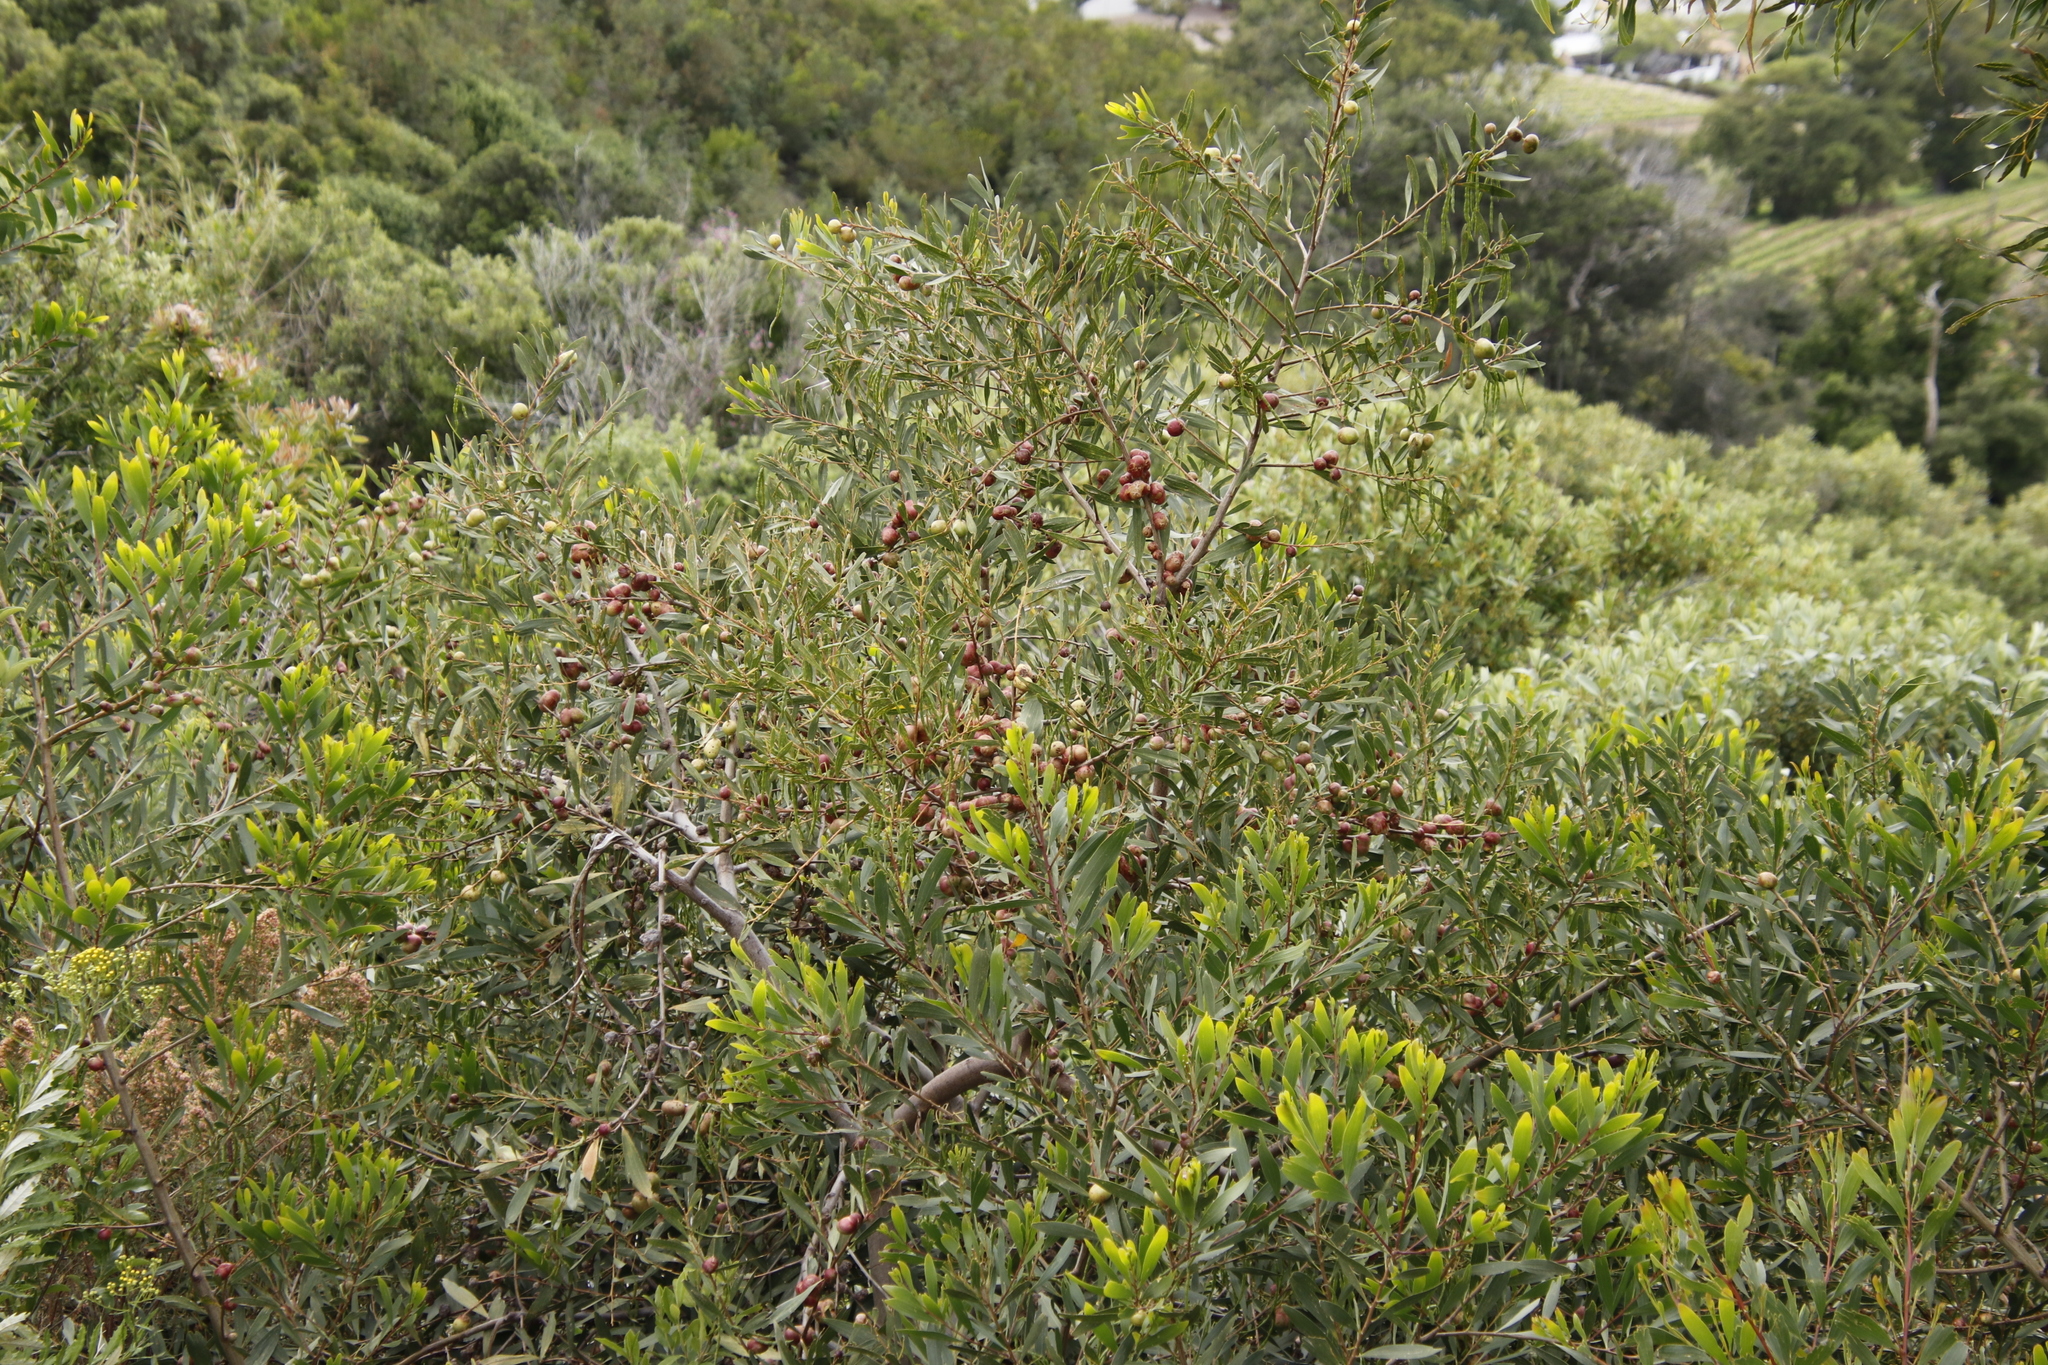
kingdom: Plantae
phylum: Tracheophyta
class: Magnoliopsida
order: Fabales
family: Fabaceae
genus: Acacia
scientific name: Acacia longifolia
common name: Sydney golden wattle
